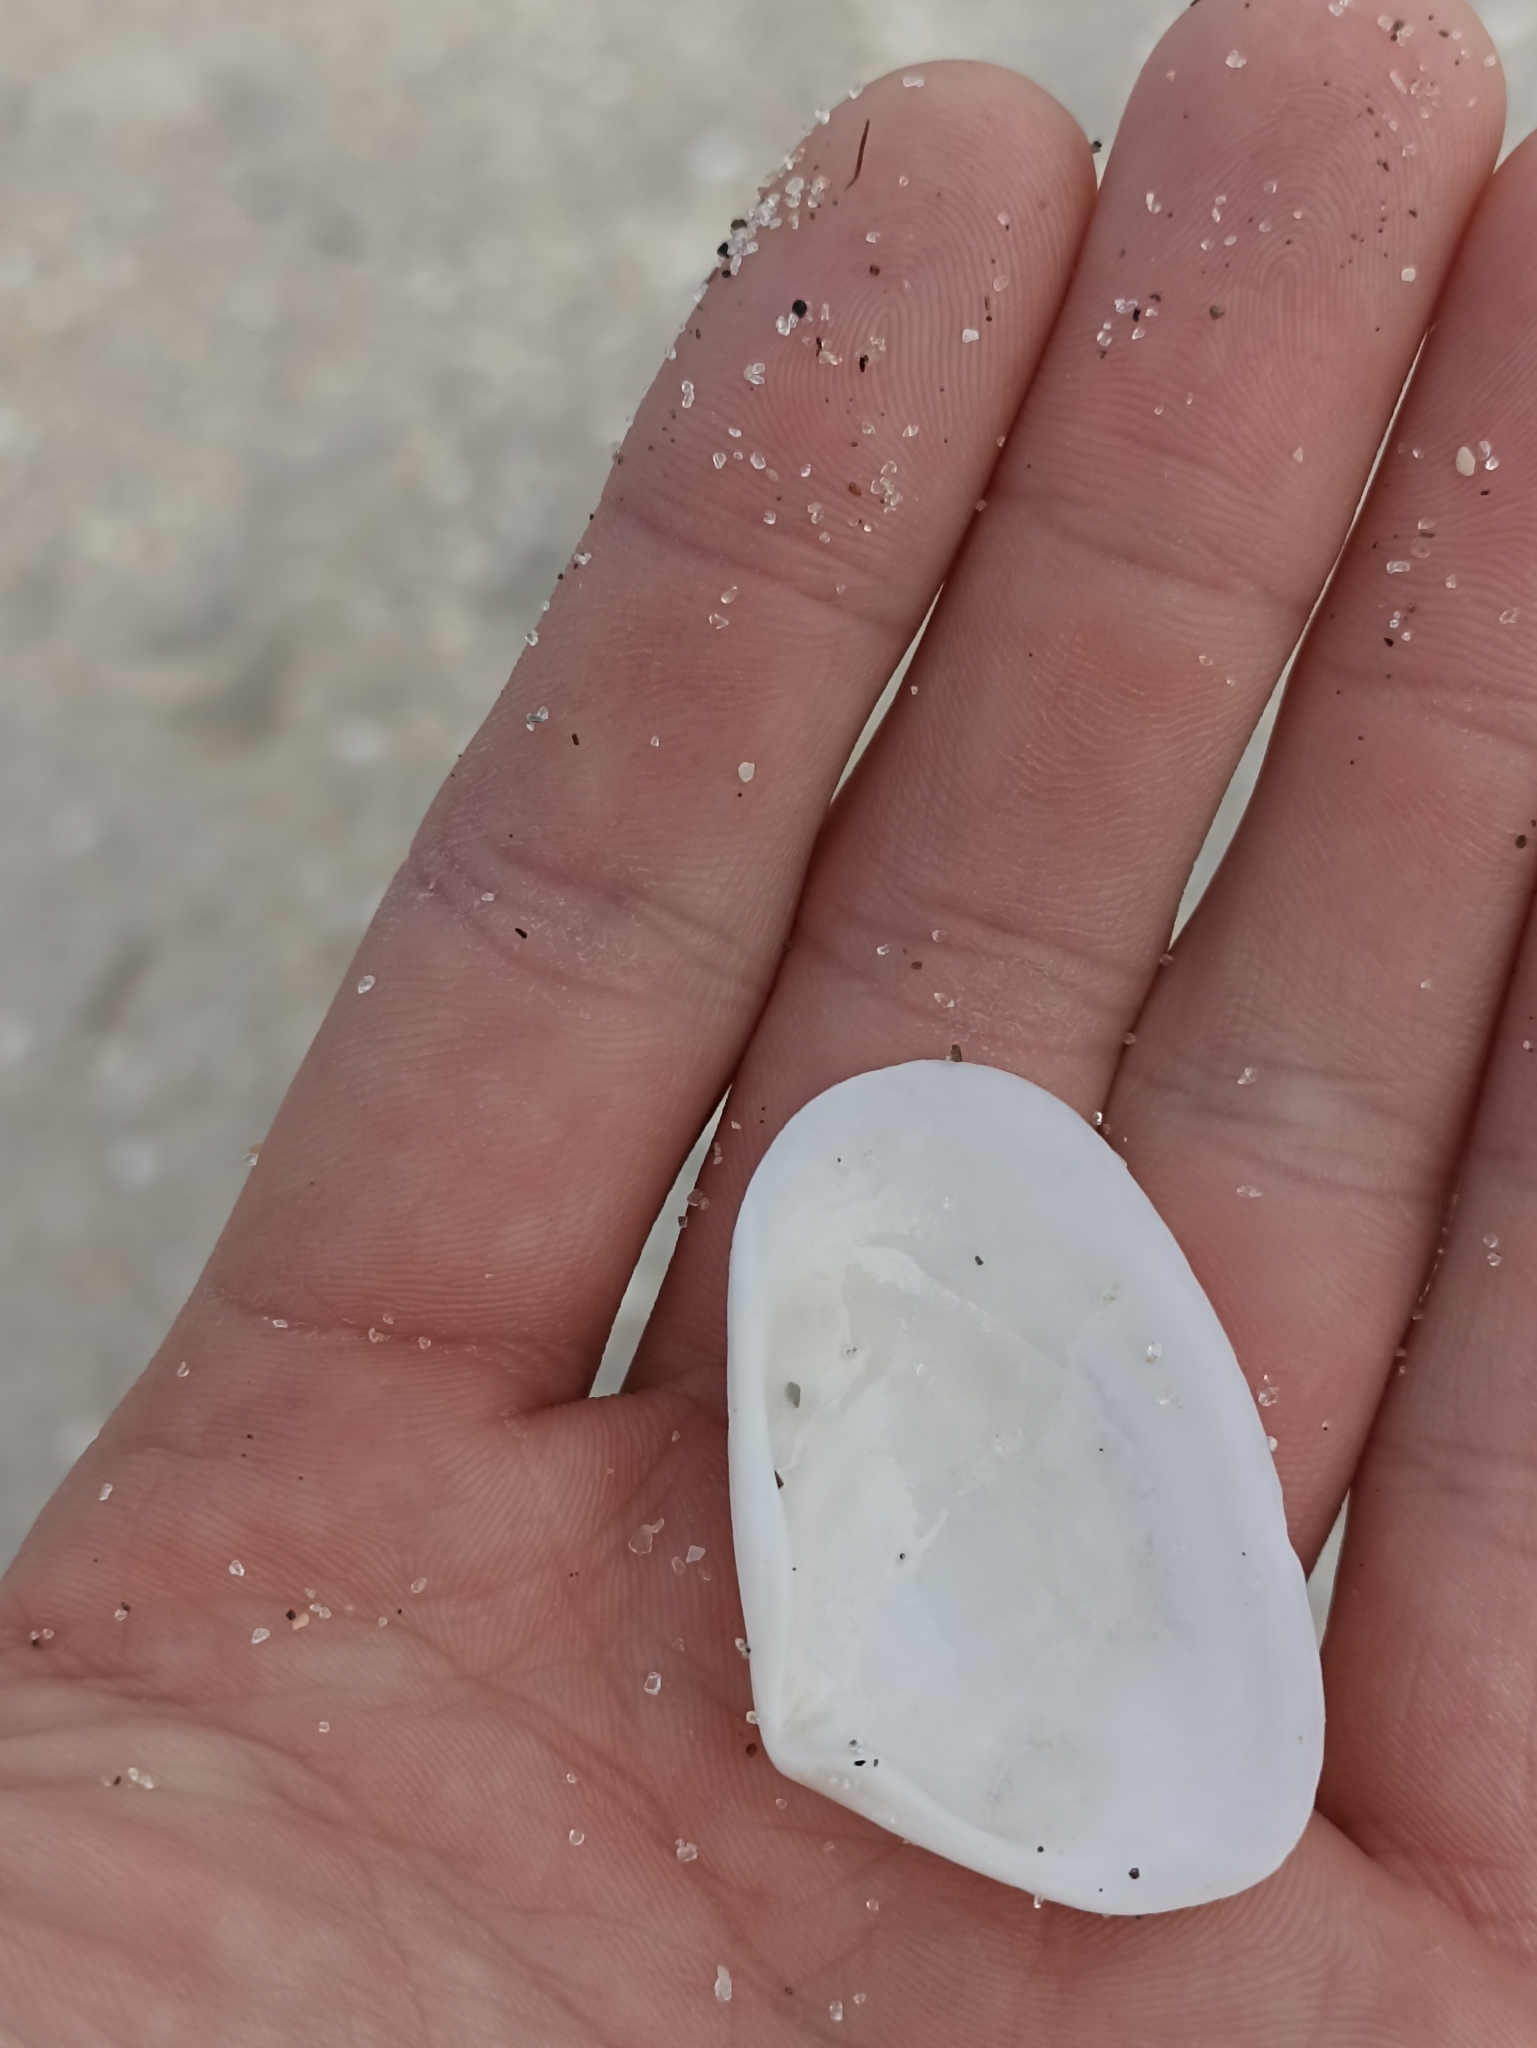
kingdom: Animalia
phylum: Mollusca
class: Bivalvia
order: Venerida
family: Mesodesmatidae
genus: Paphies
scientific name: Paphies subtriangulata
